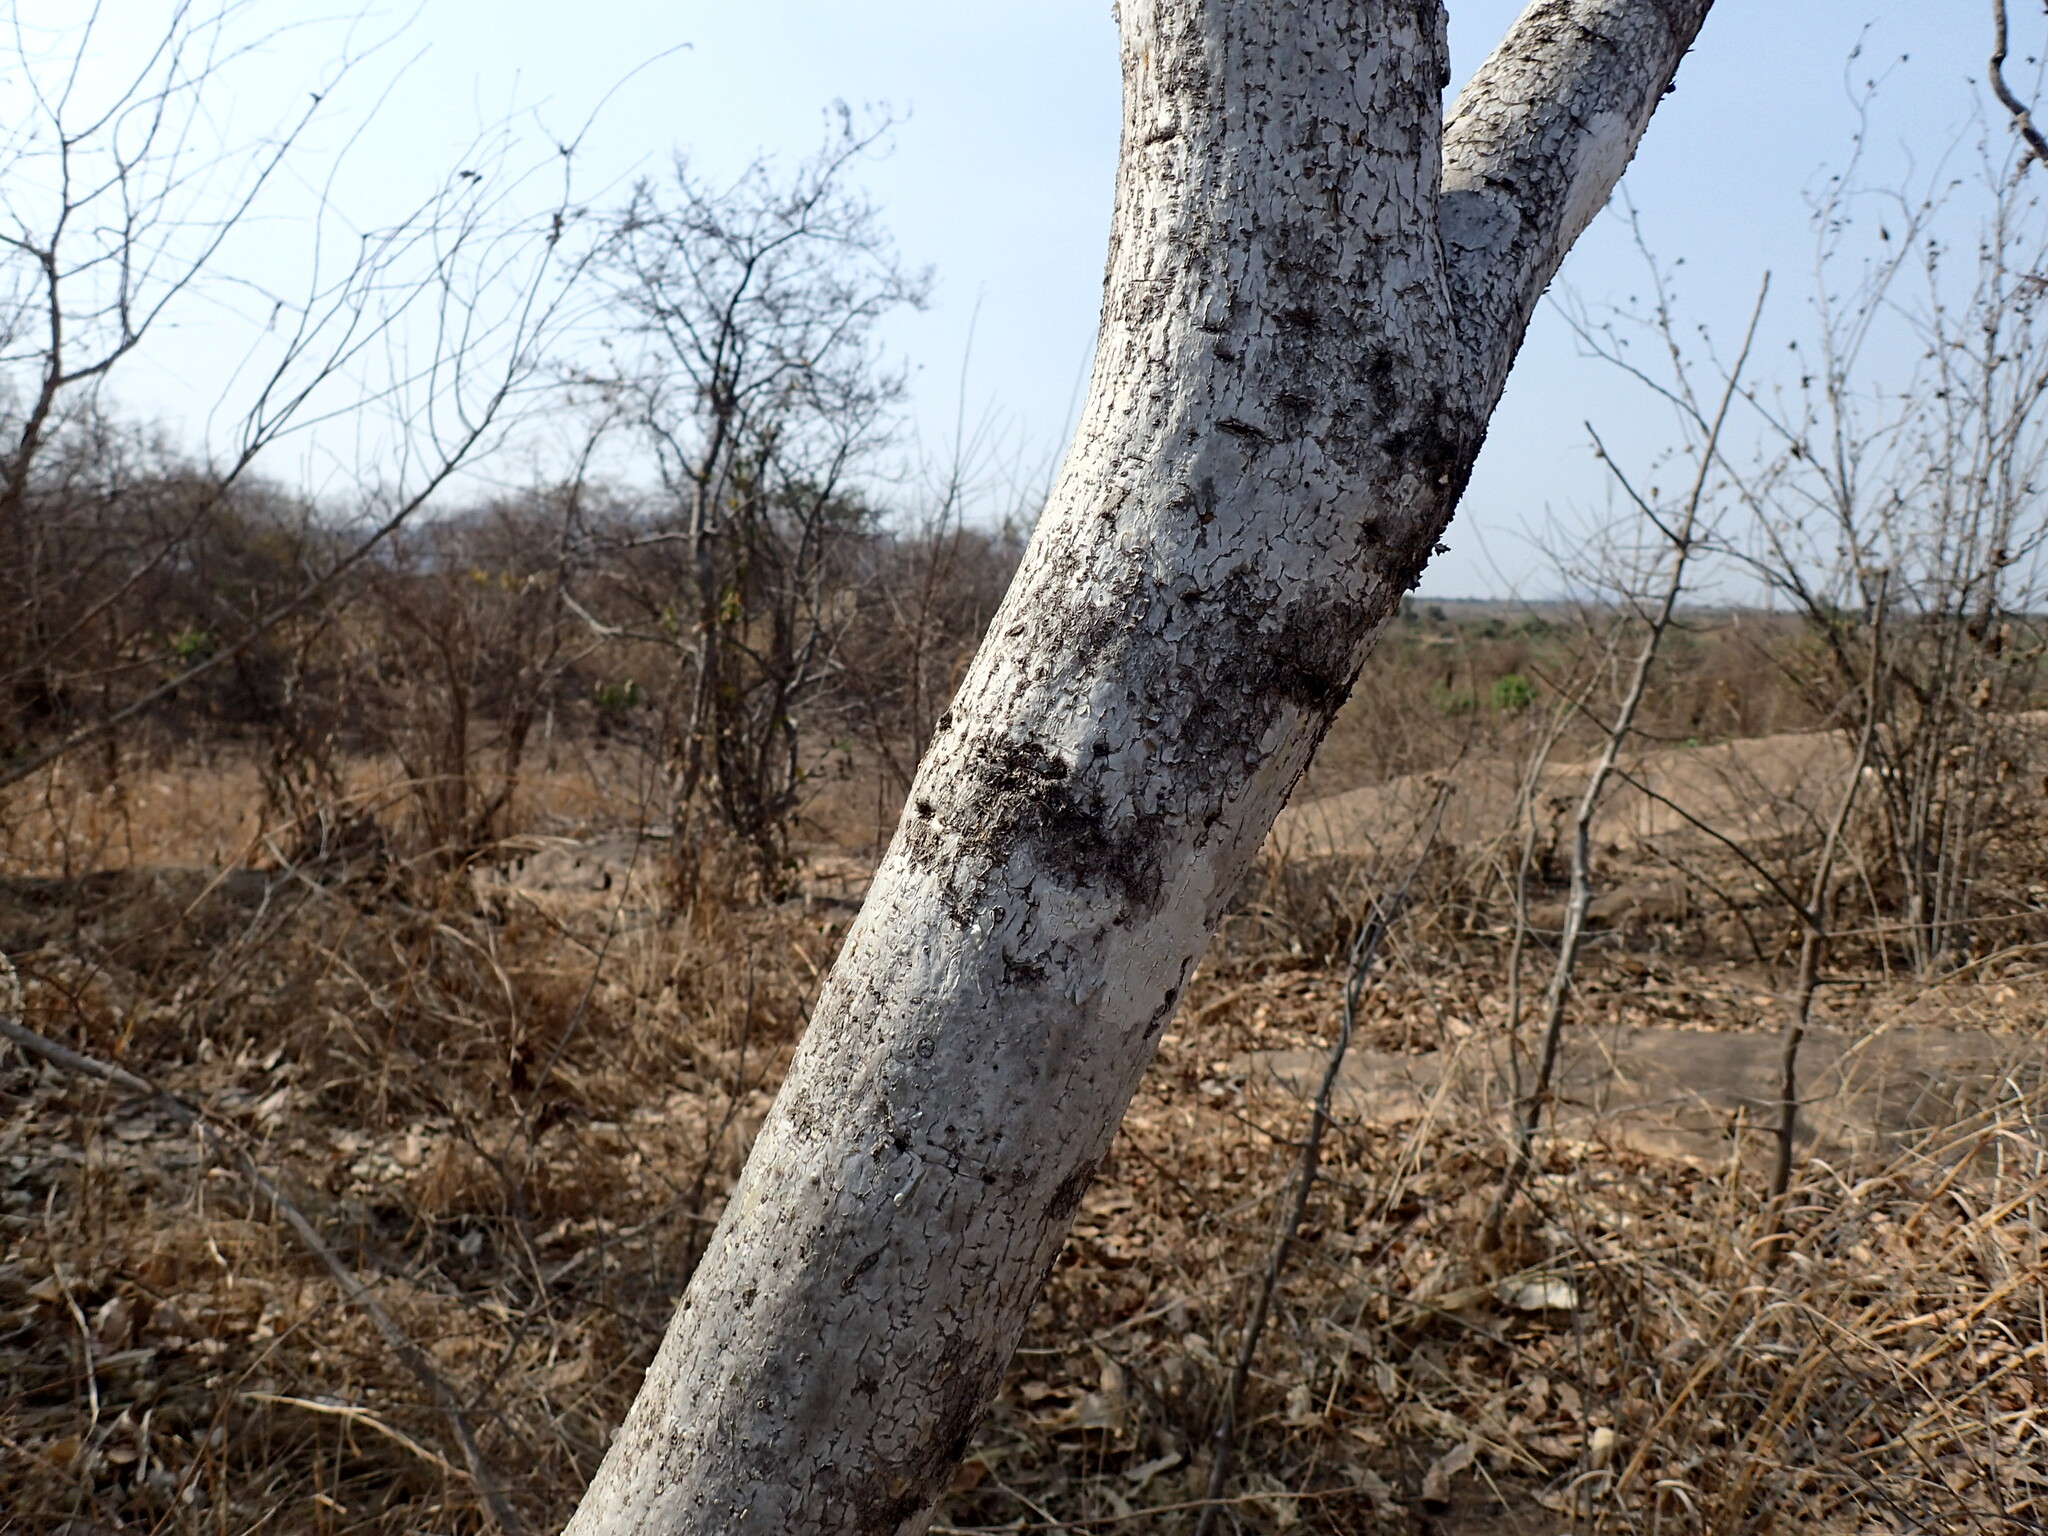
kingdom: Plantae
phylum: Tracheophyta
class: Magnoliopsida
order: Apiales
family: Apiaceae
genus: Steganotaenia
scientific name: Steganotaenia araliacea
